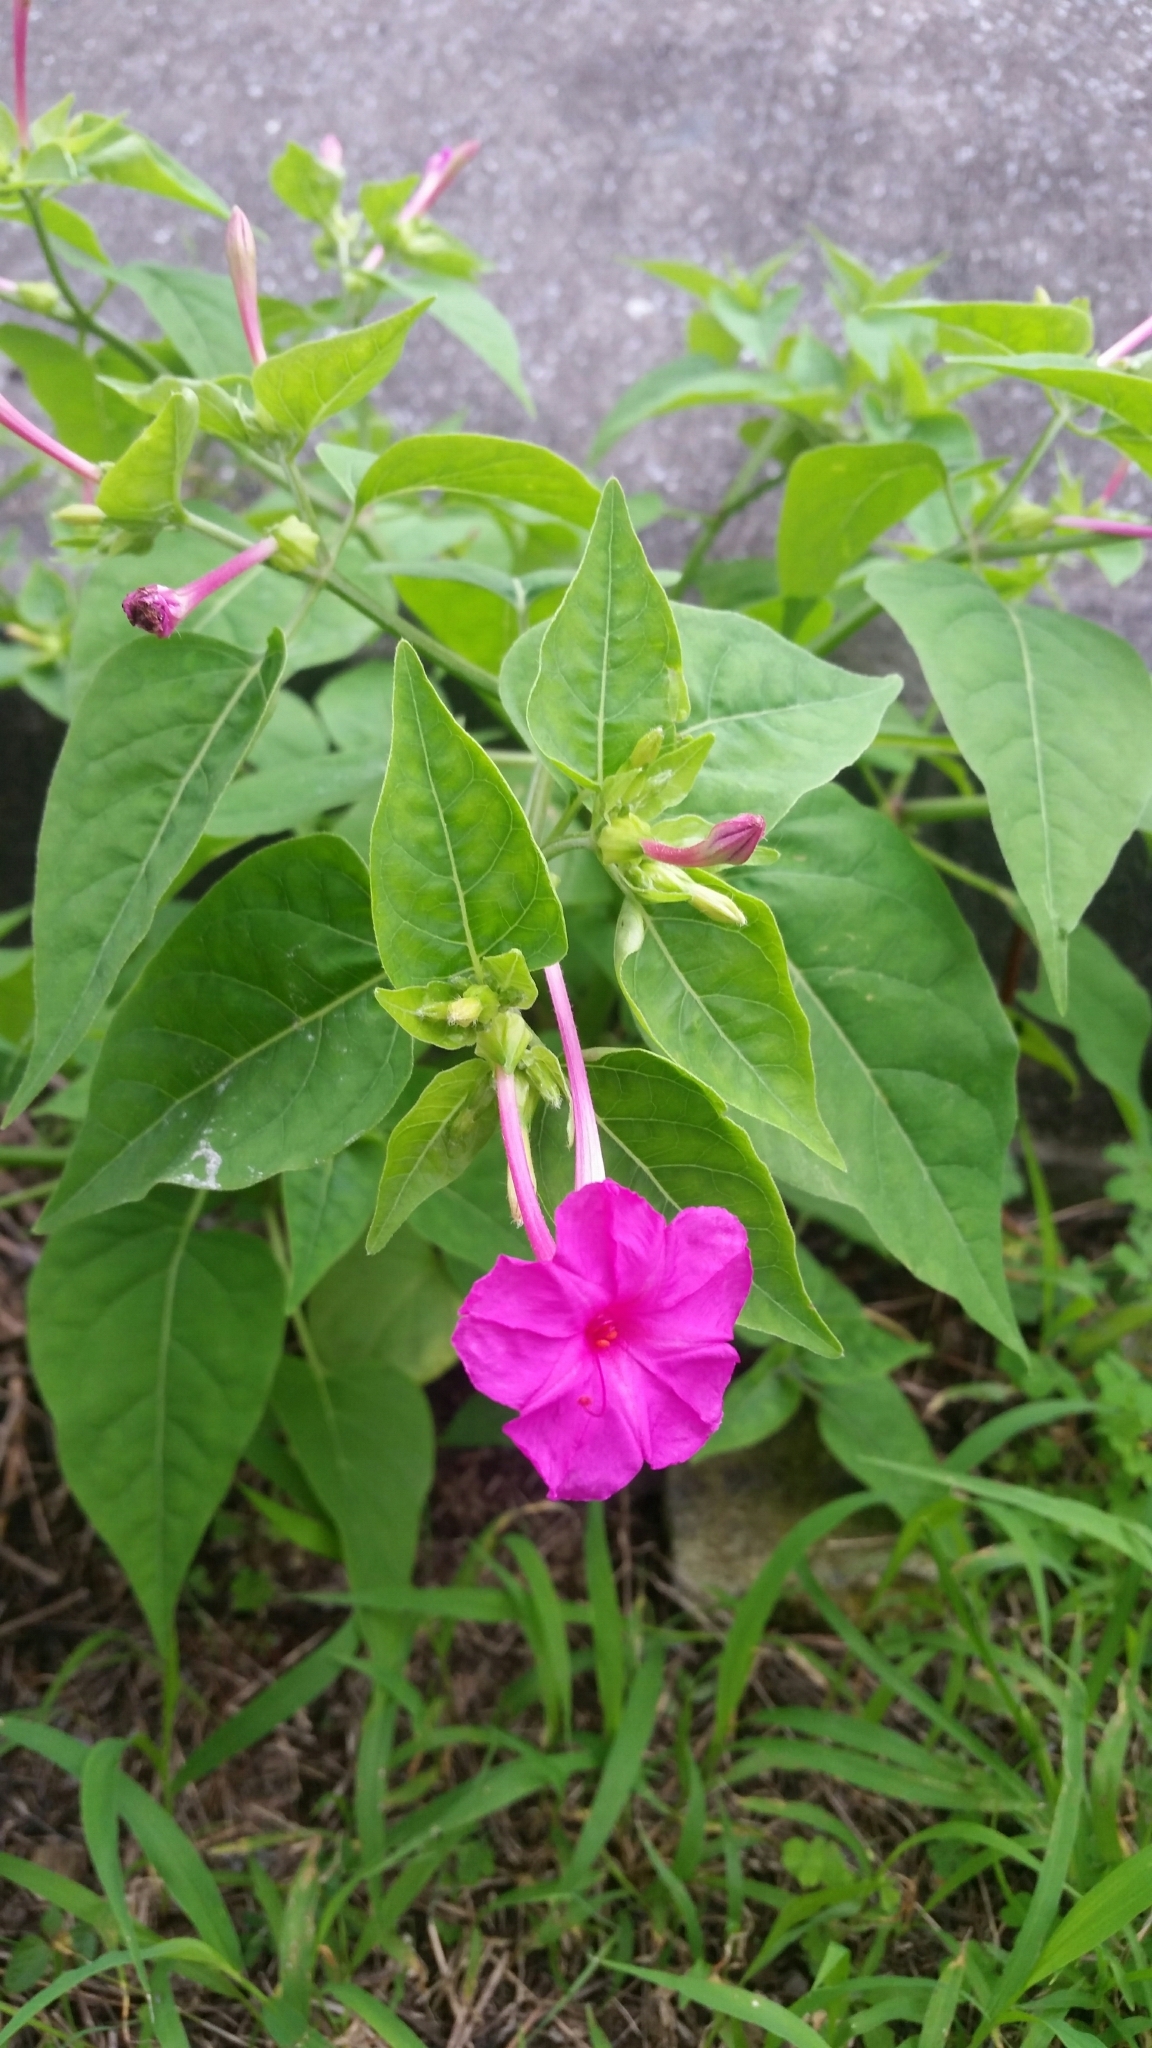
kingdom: Plantae
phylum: Tracheophyta
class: Magnoliopsida
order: Caryophyllales
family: Nyctaginaceae
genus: Mirabilis
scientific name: Mirabilis jalapa
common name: Marvel-of-peru
